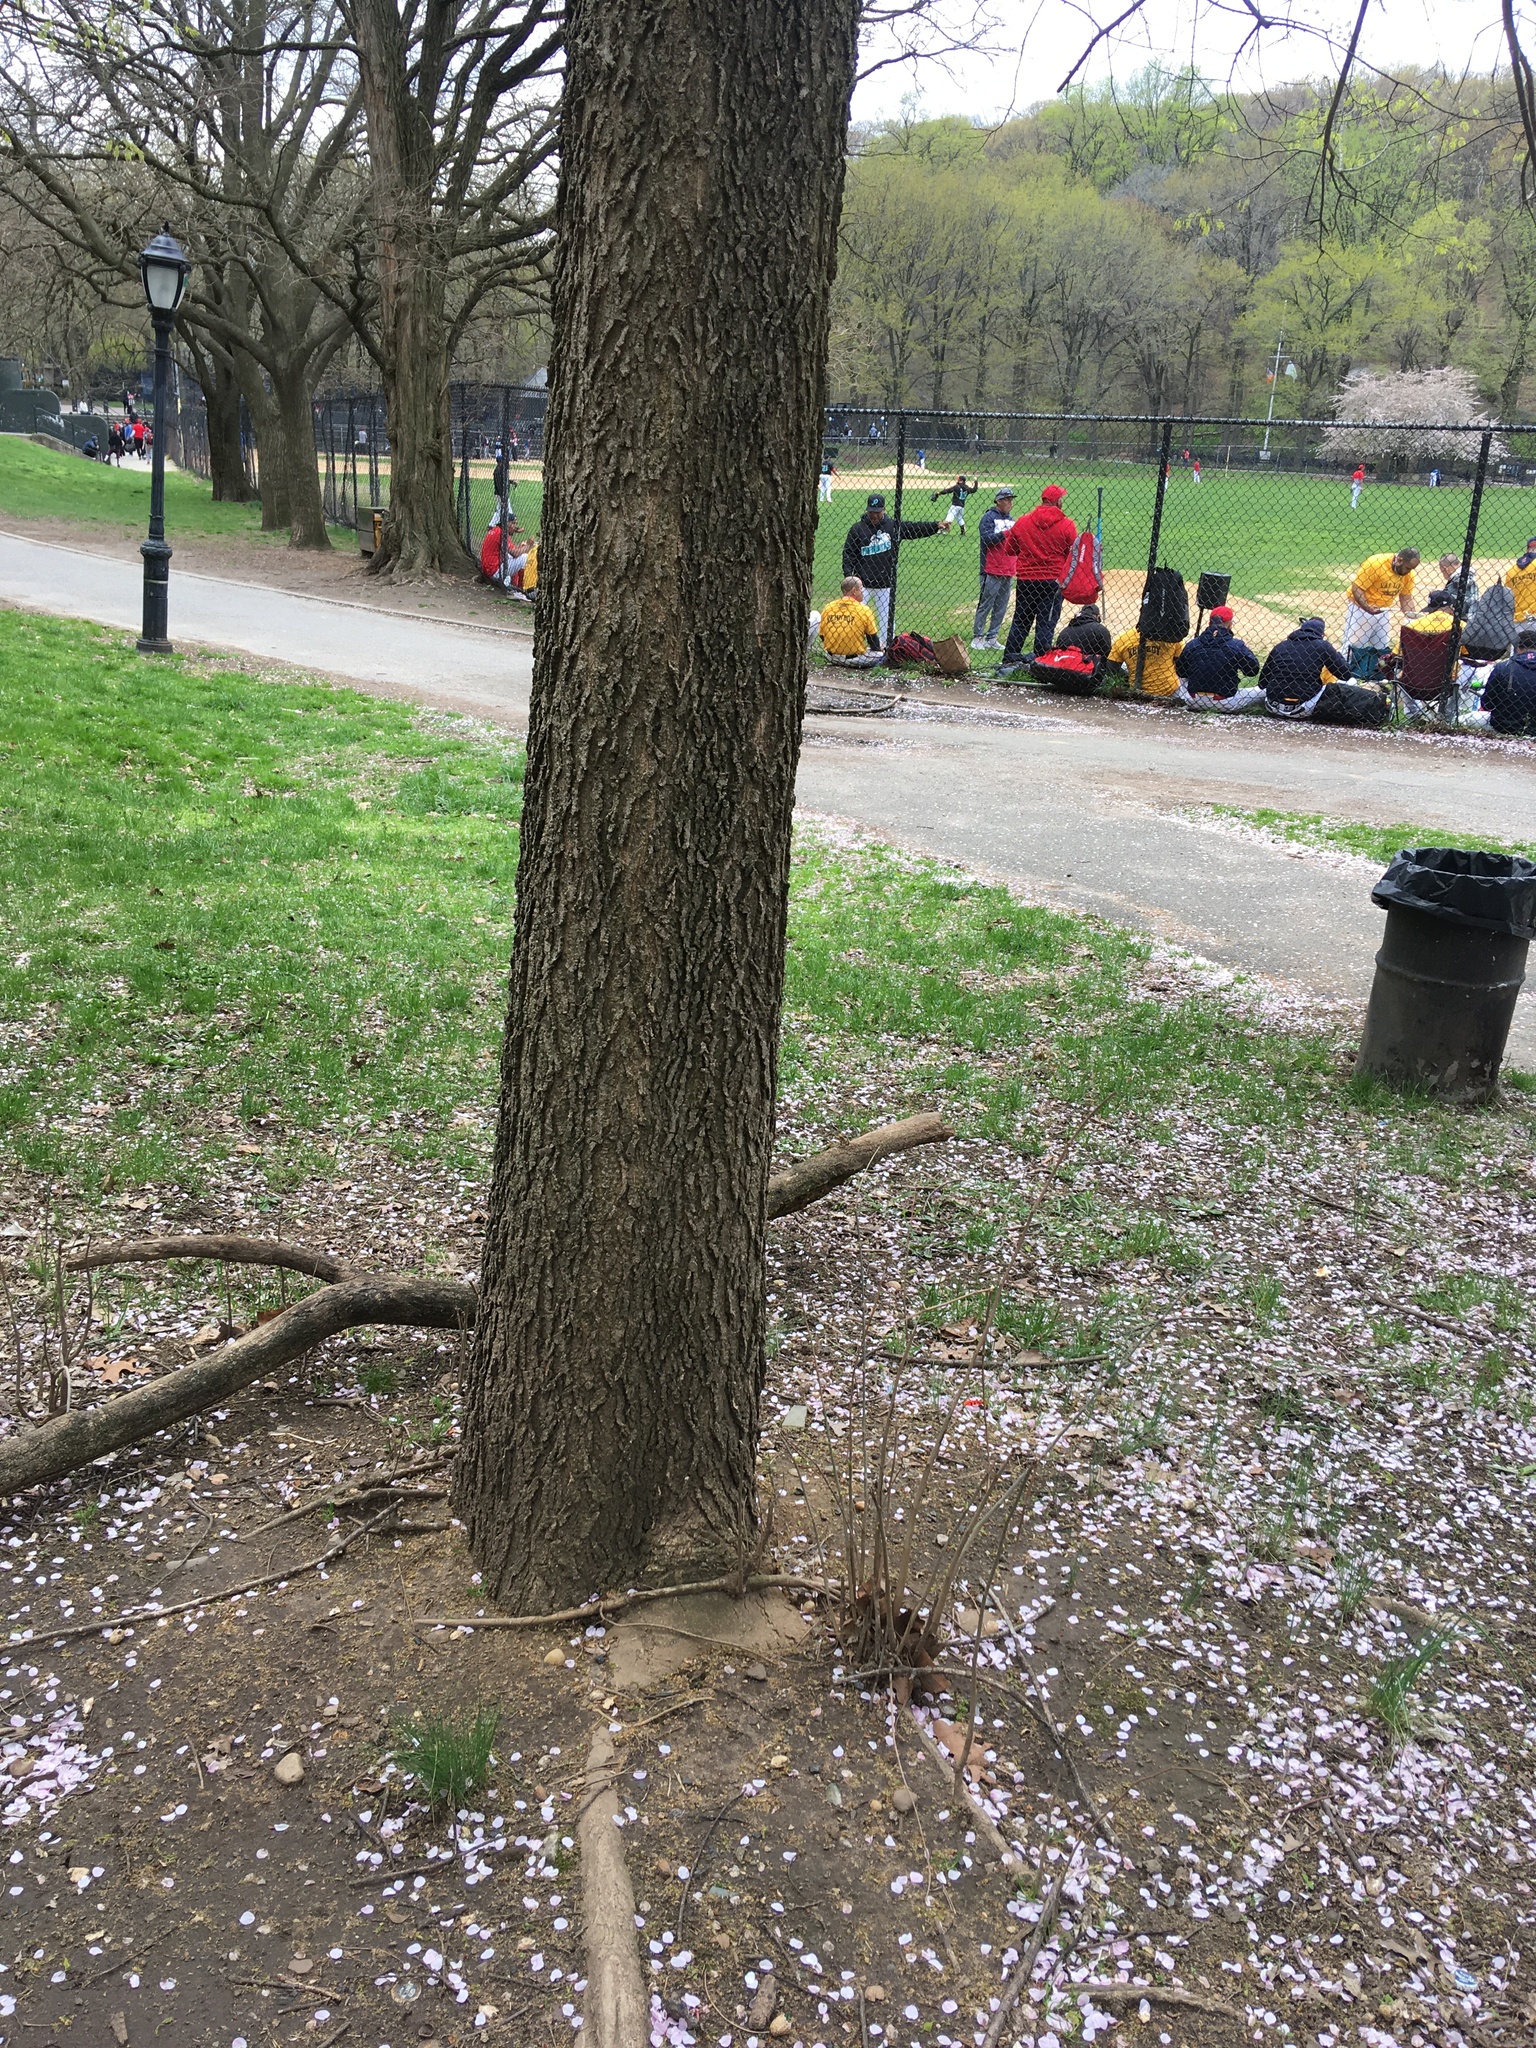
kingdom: Plantae
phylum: Tracheophyta
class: Magnoliopsida
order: Rosales
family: Cannabaceae
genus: Celtis
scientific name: Celtis occidentalis
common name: Common hackberry
